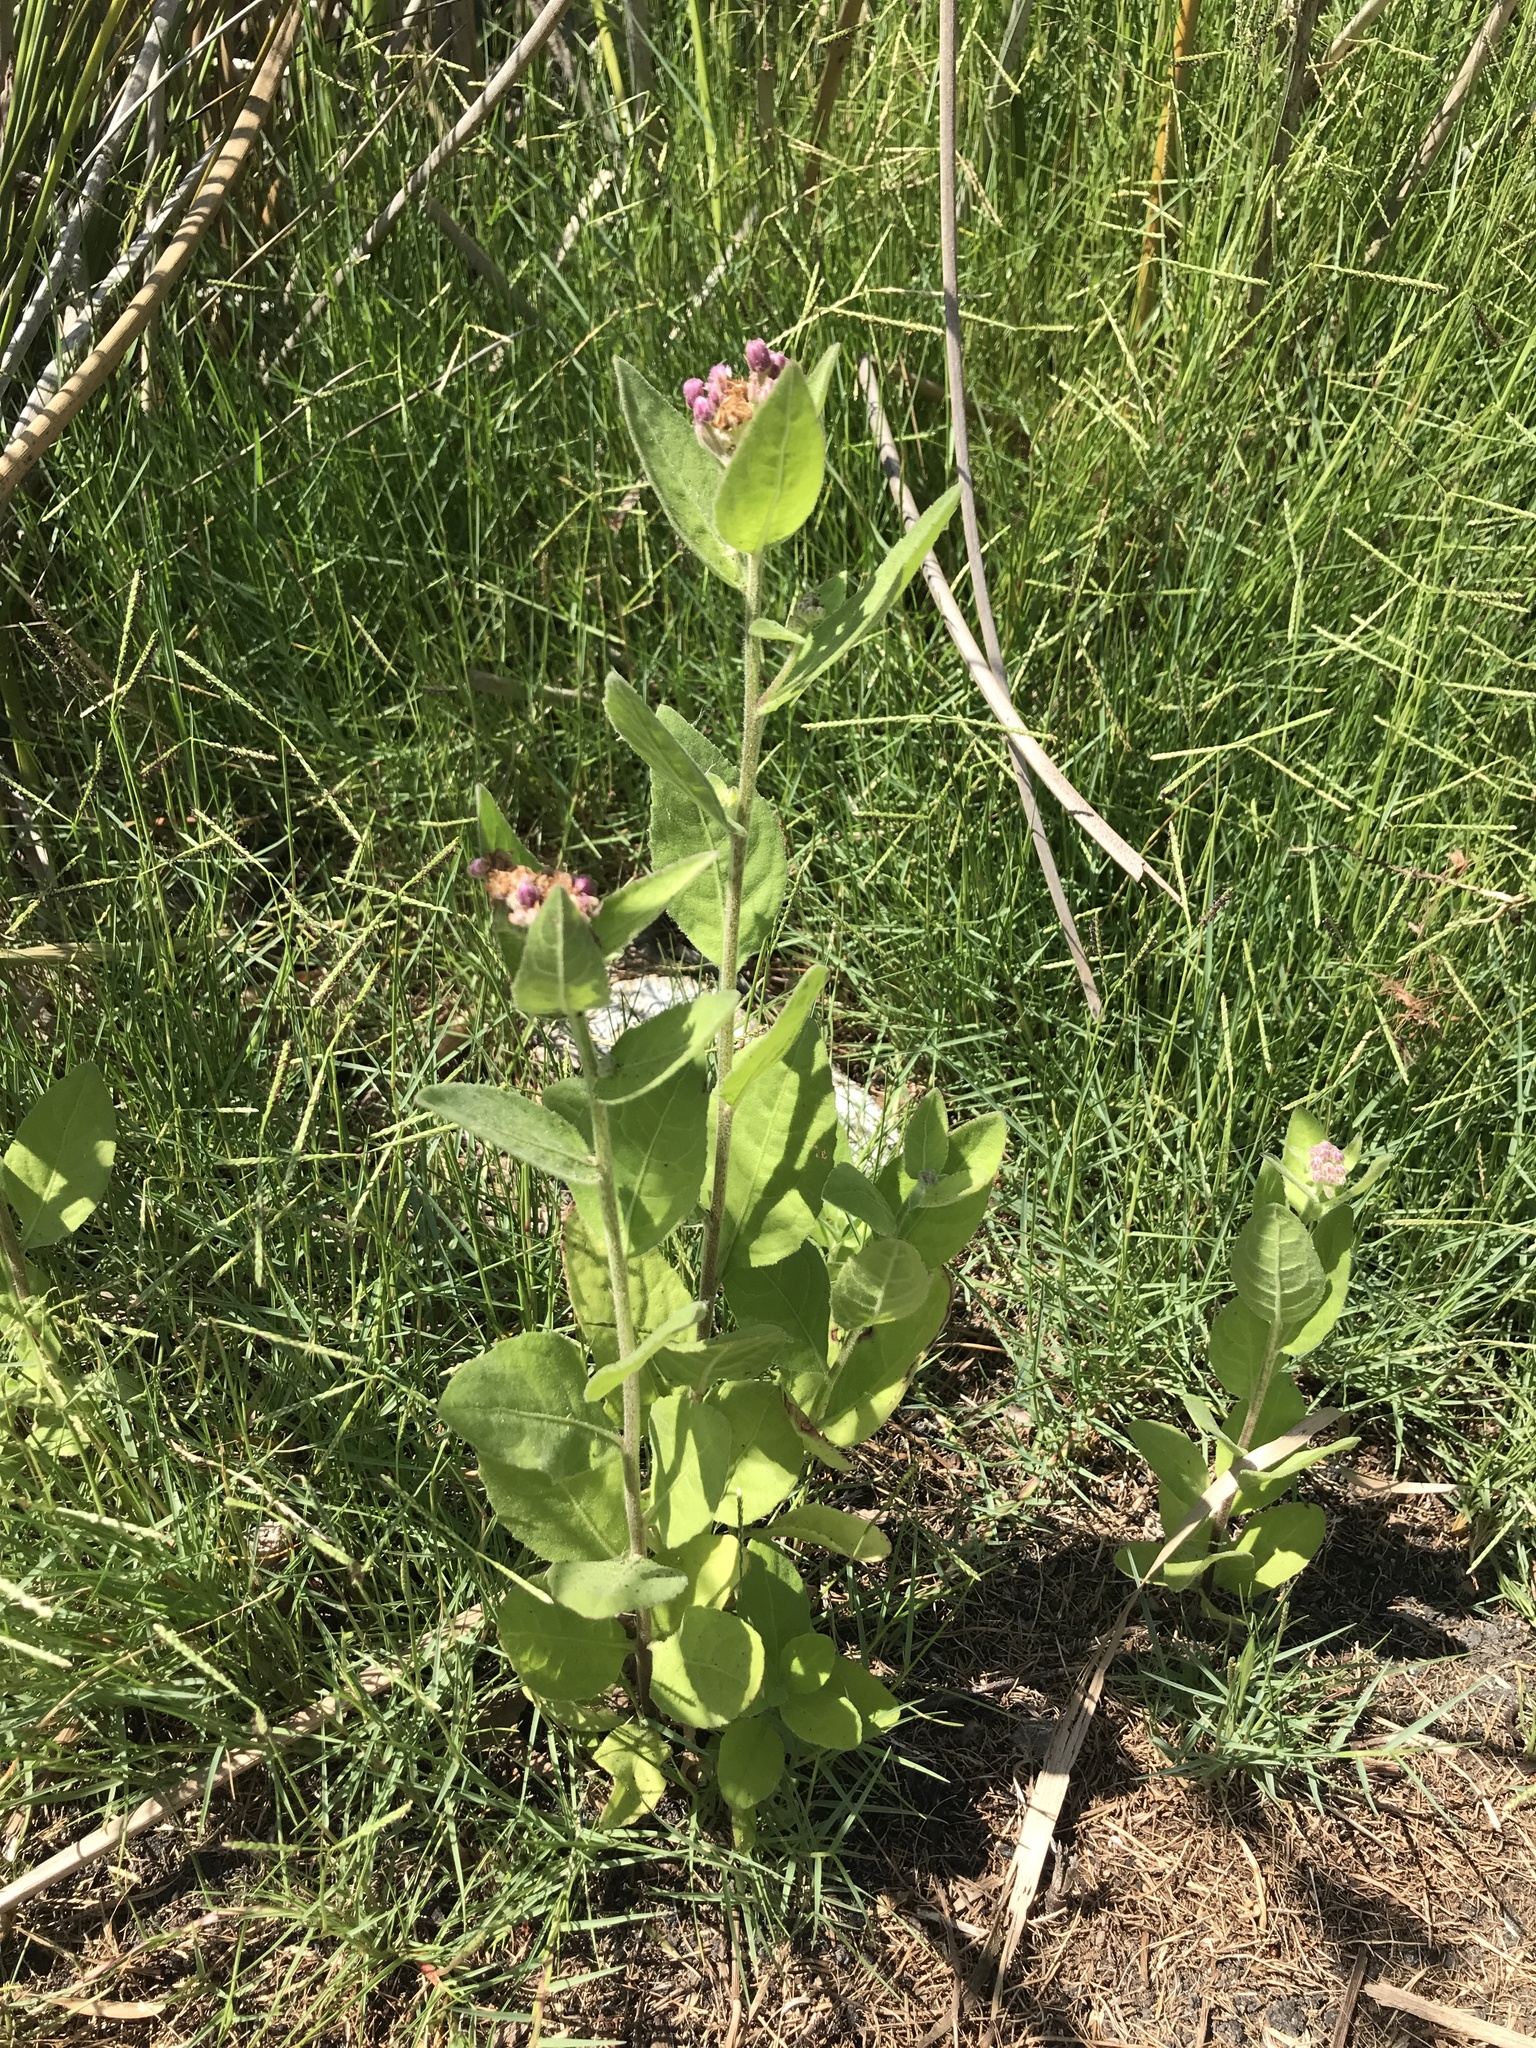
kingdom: Plantae
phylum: Tracheophyta
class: Magnoliopsida
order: Asterales
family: Asteraceae
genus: Pluchea
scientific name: Pluchea odorata
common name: Saltmarsh fleabane
